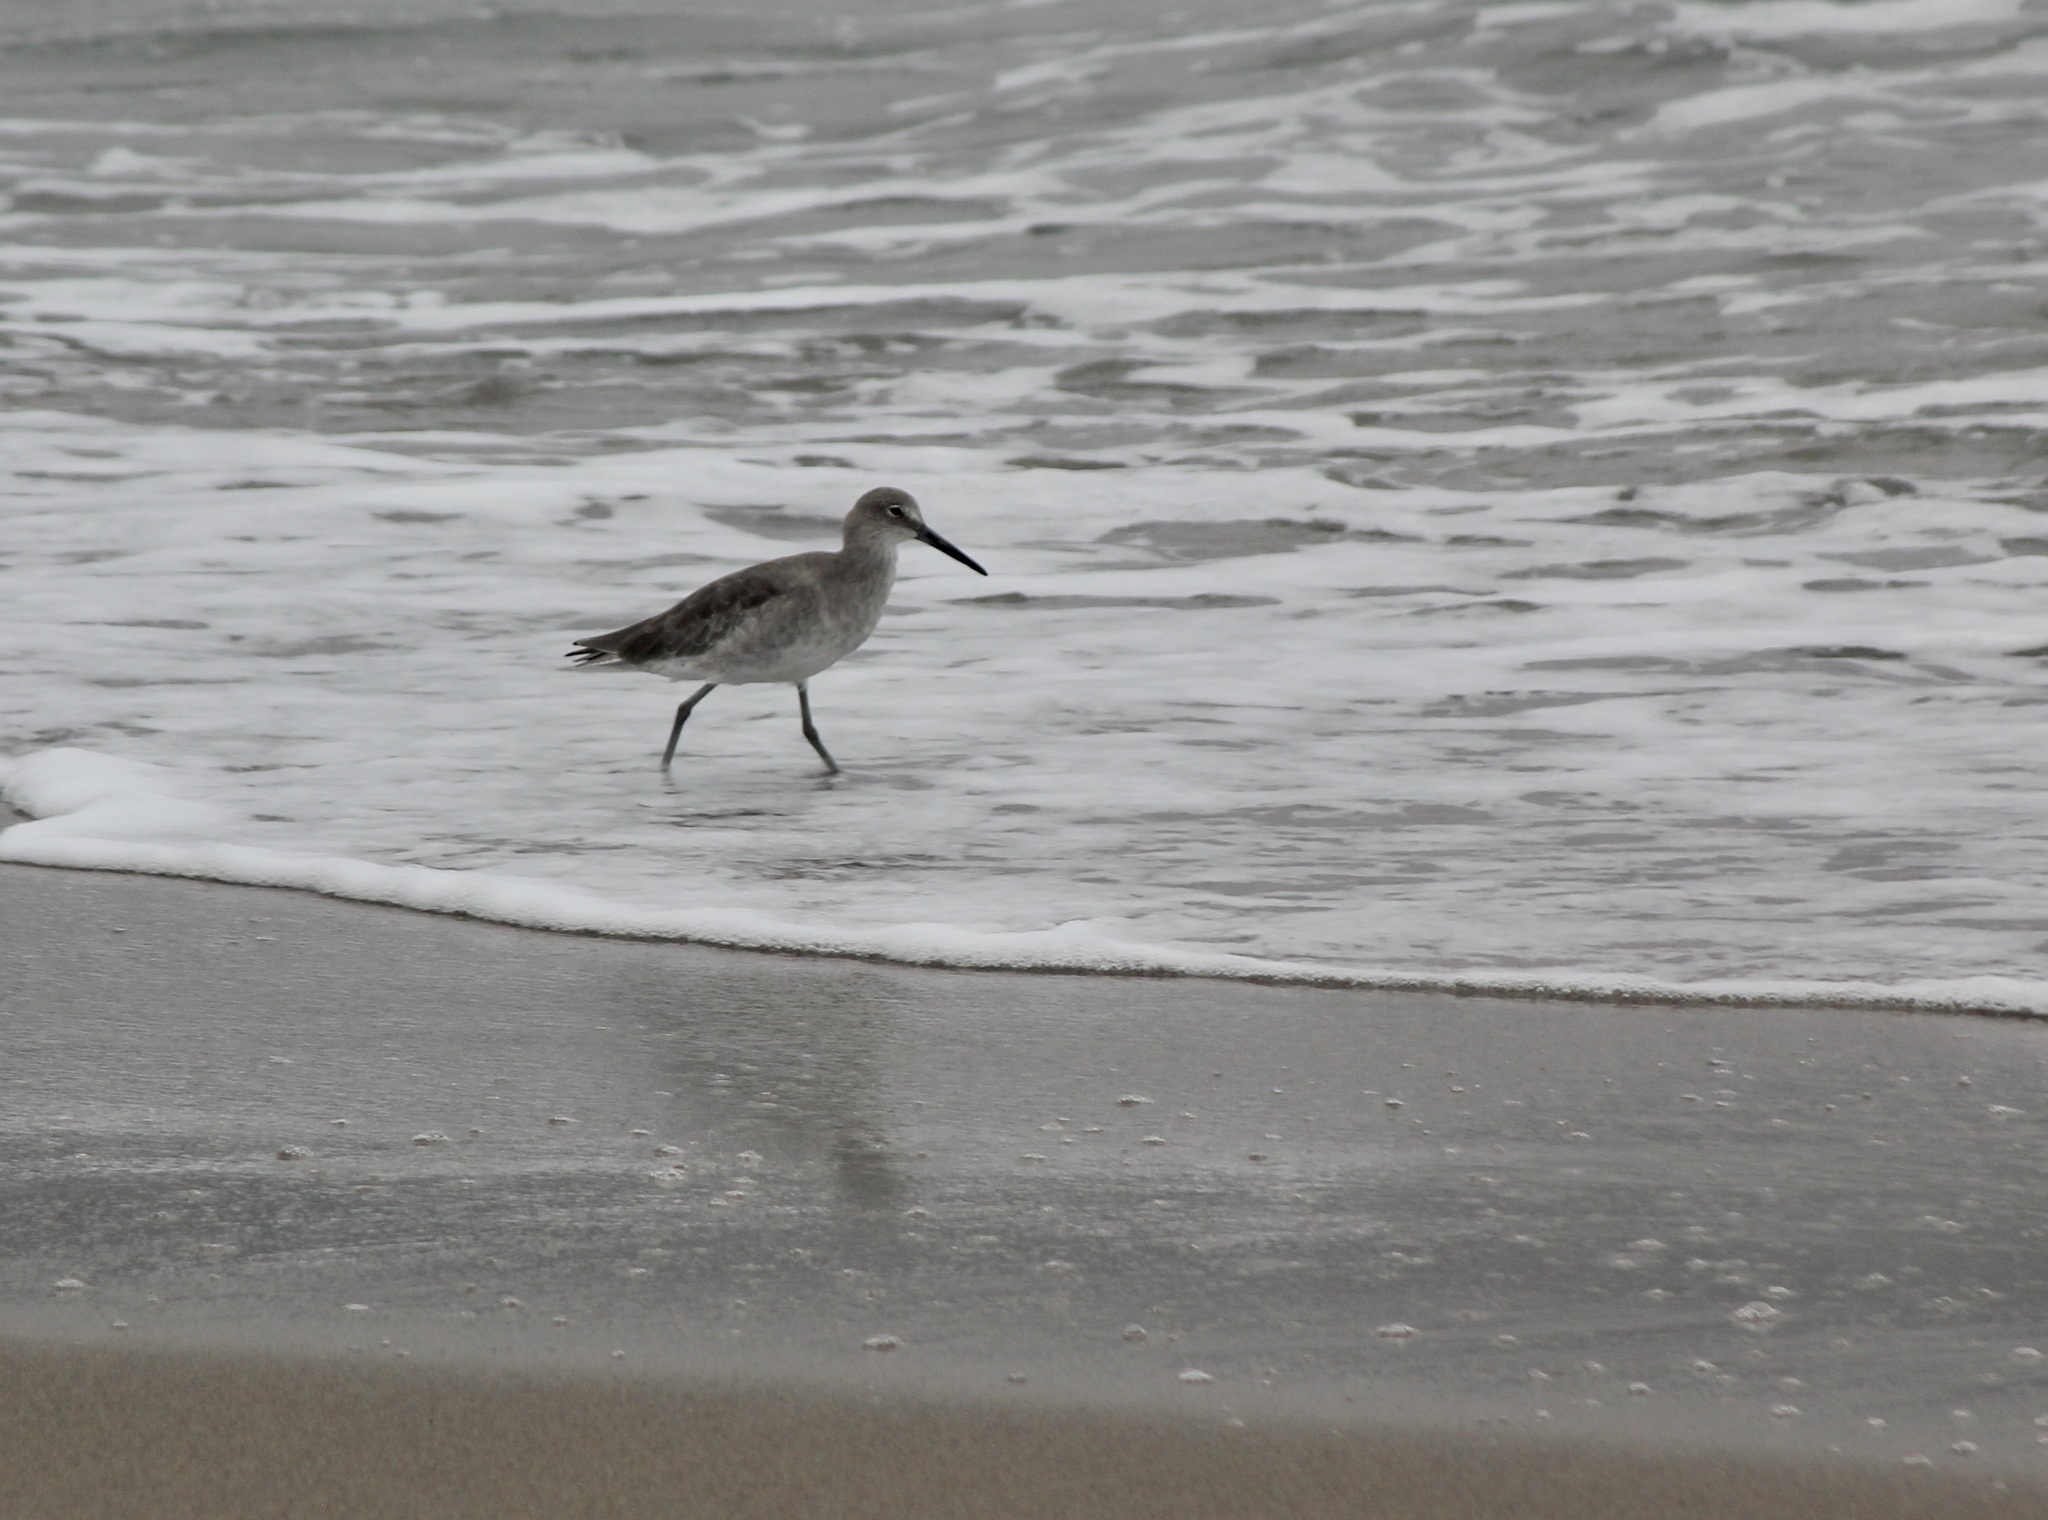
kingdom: Animalia
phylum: Chordata
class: Aves
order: Charadriiformes
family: Scolopacidae
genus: Tringa
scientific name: Tringa semipalmata
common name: Willet
